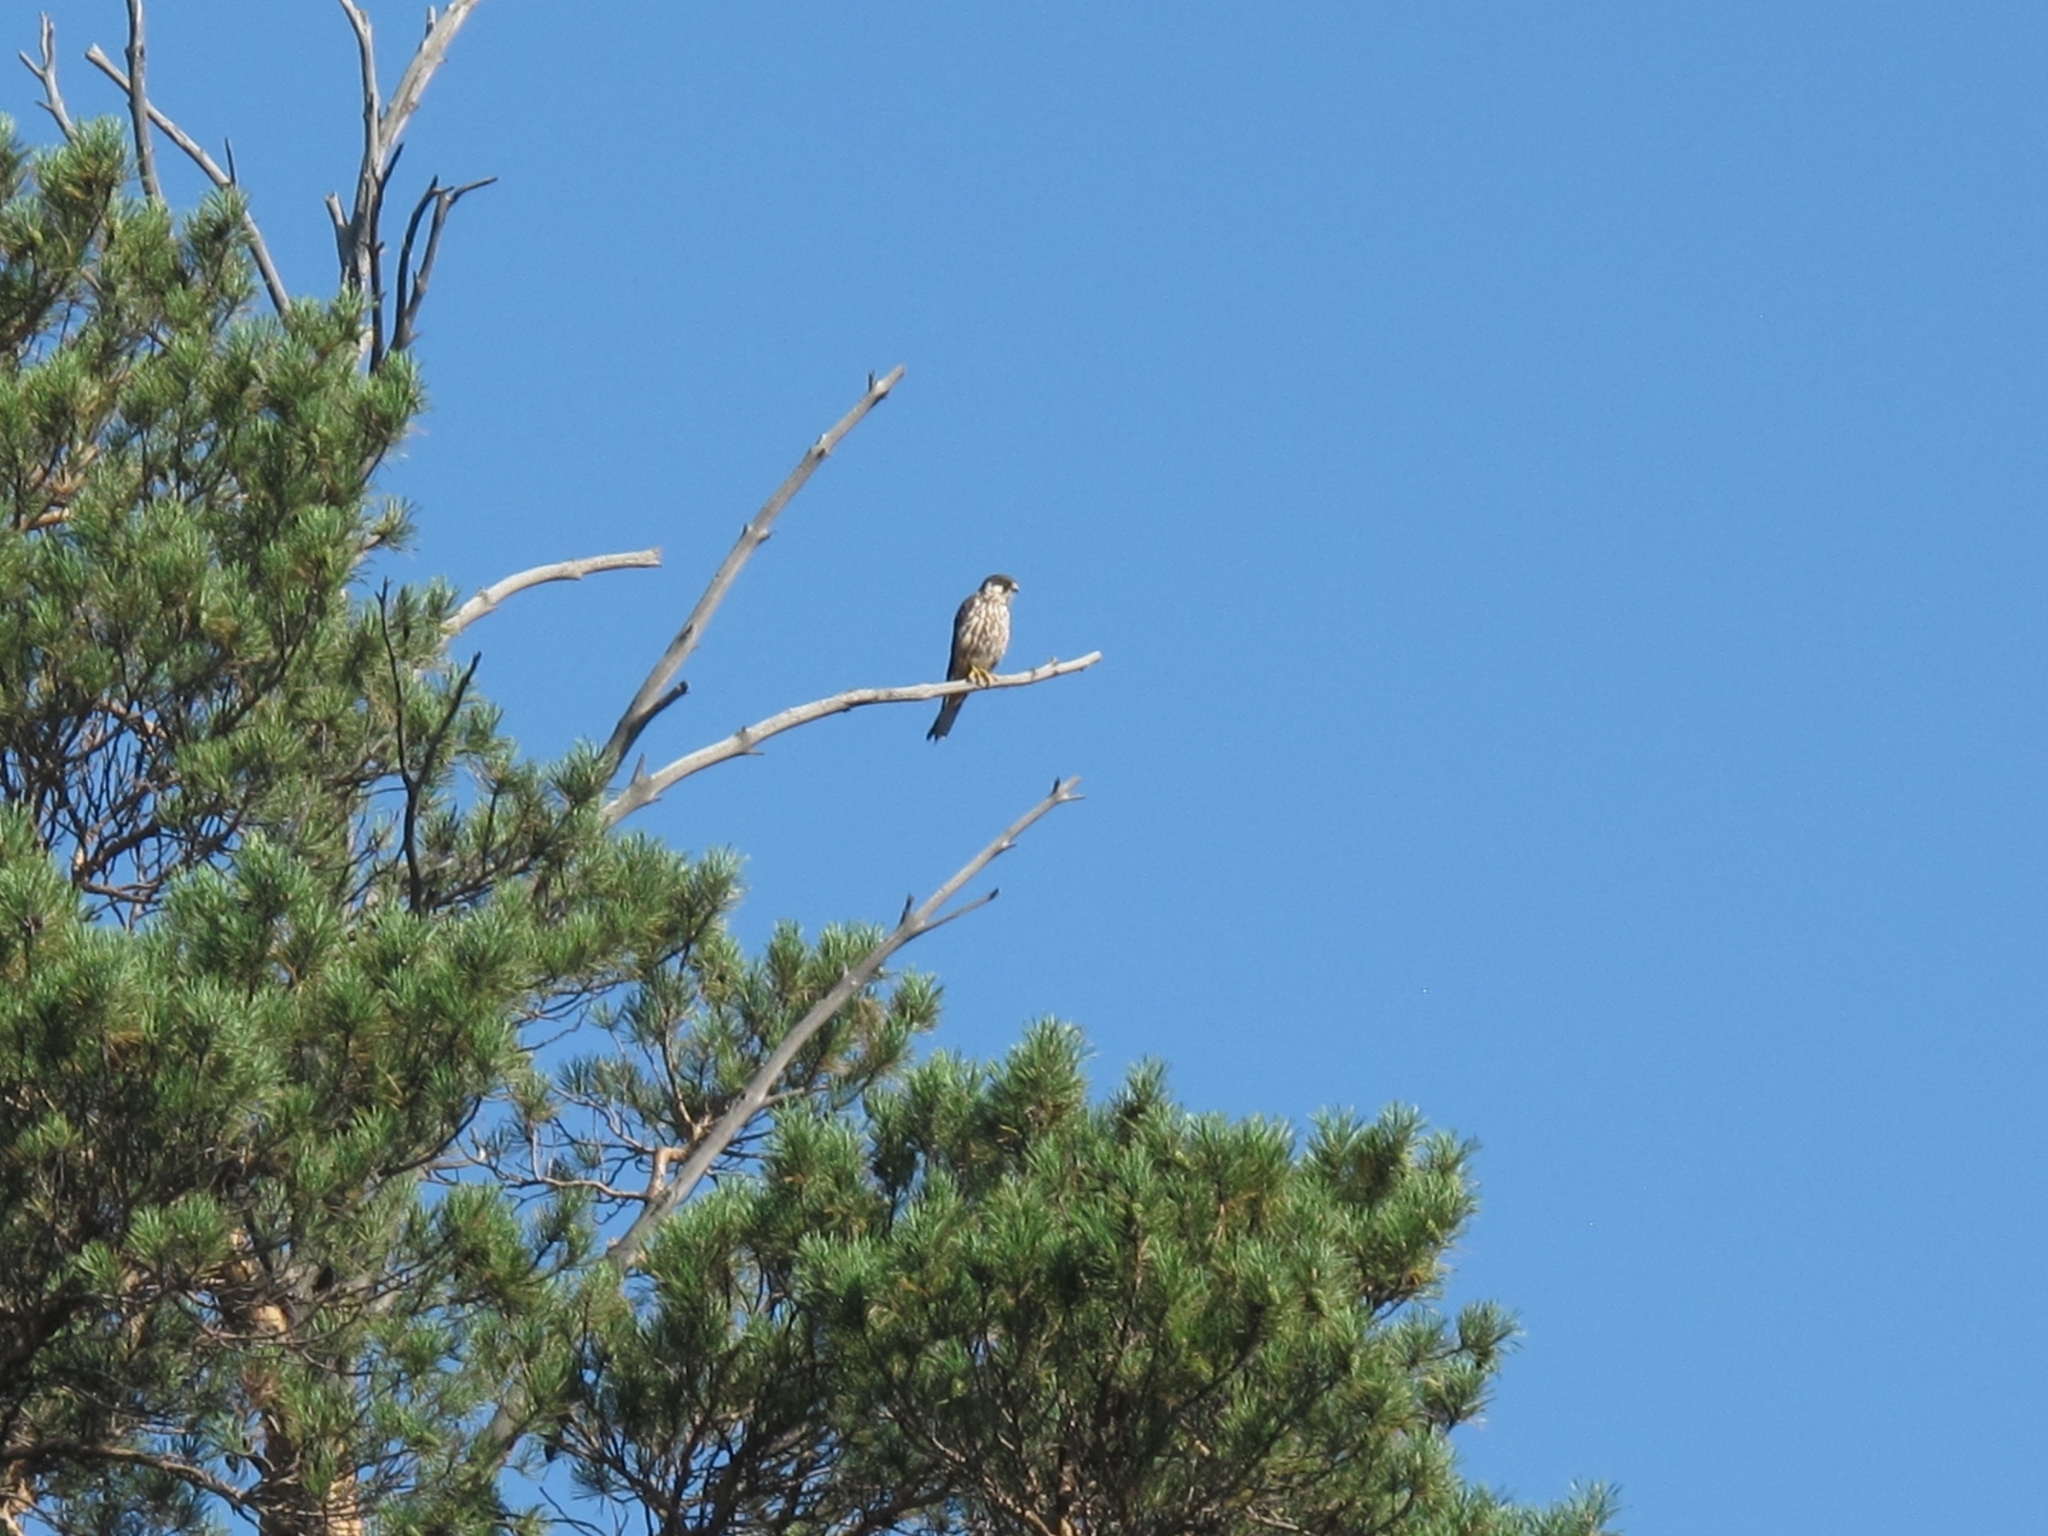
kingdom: Animalia
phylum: Chordata
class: Aves
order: Falconiformes
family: Falconidae
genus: Falco
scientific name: Falco subbuteo
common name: Eurasian hobby
